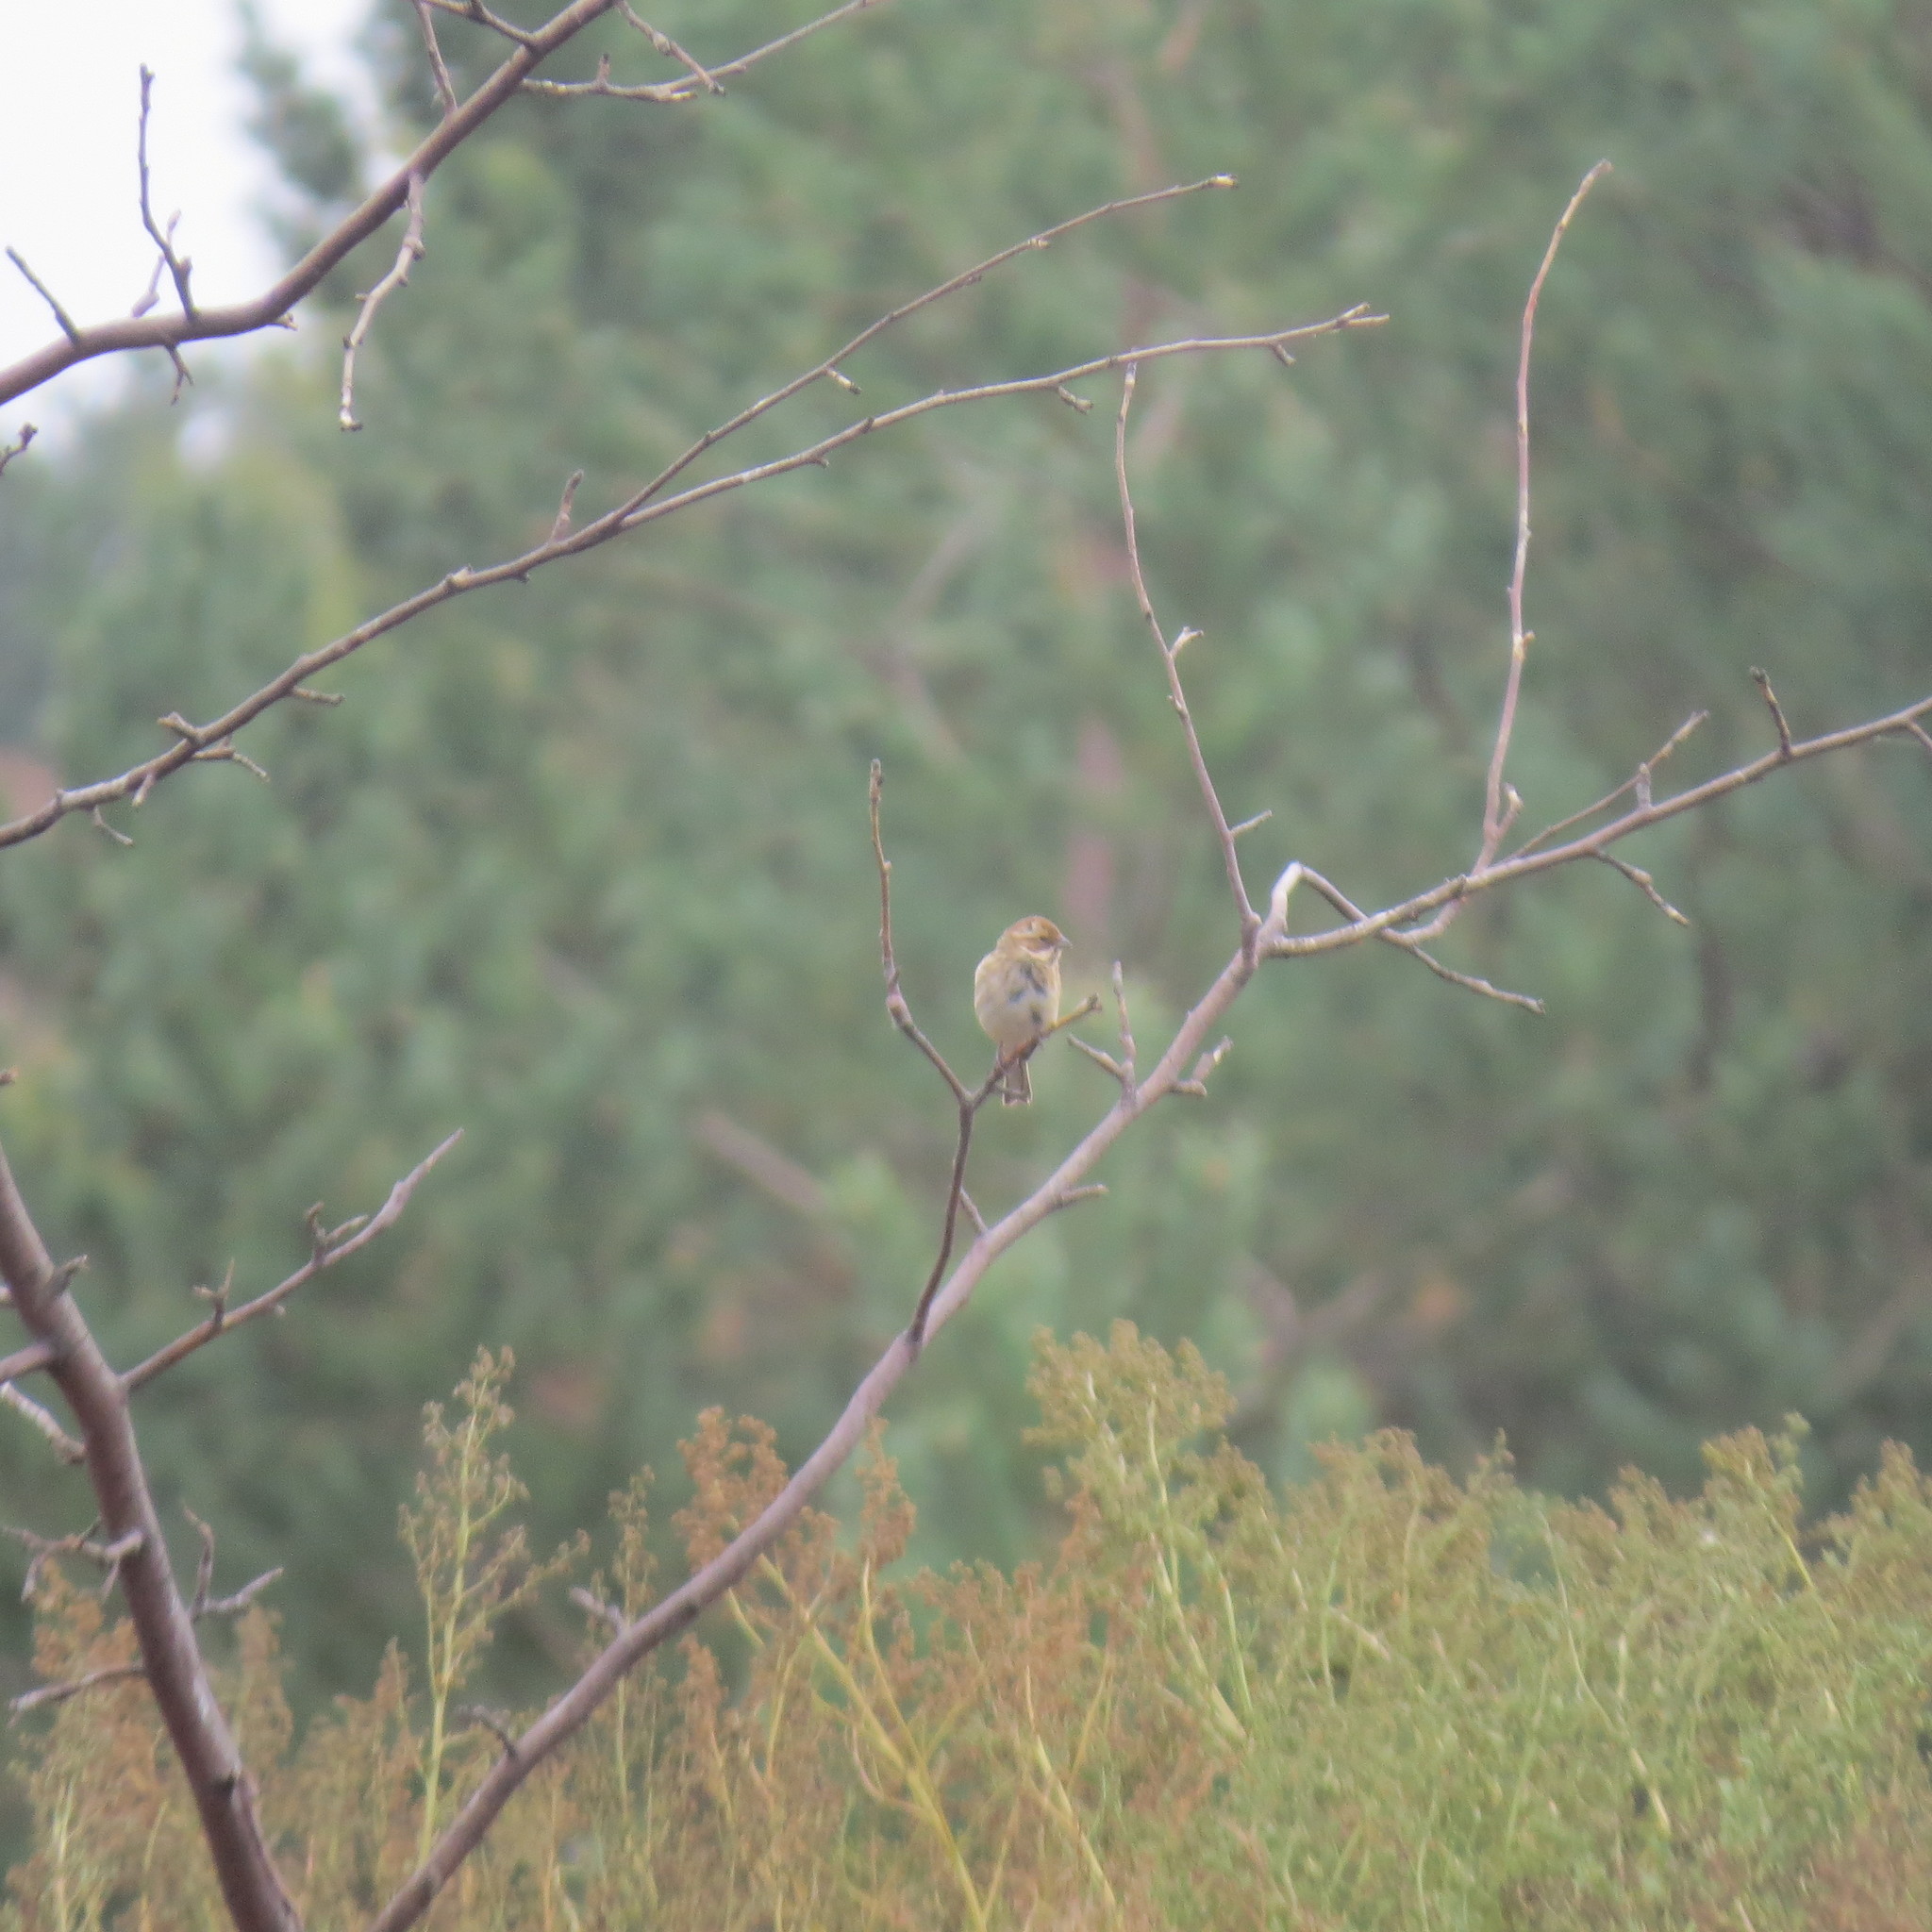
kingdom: Animalia
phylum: Chordata
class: Aves
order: Passeriformes
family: Emberizidae
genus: Emberiza
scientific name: Emberiza schoeniclus
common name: Reed bunting
